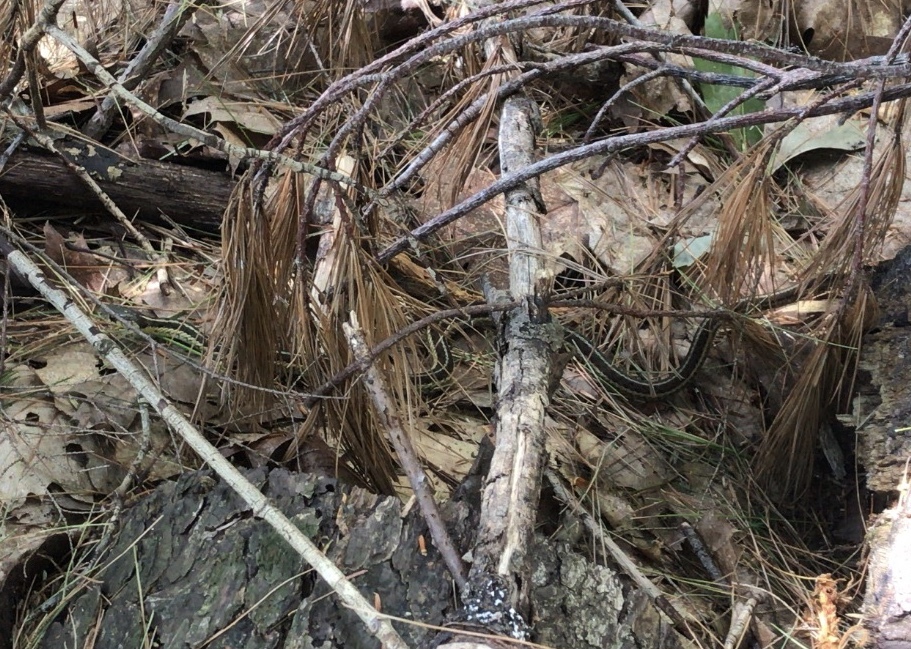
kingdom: Animalia
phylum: Chordata
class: Squamata
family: Colubridae
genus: Thamnophis
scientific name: Thamnophis sirtalis
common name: Common garter snake
